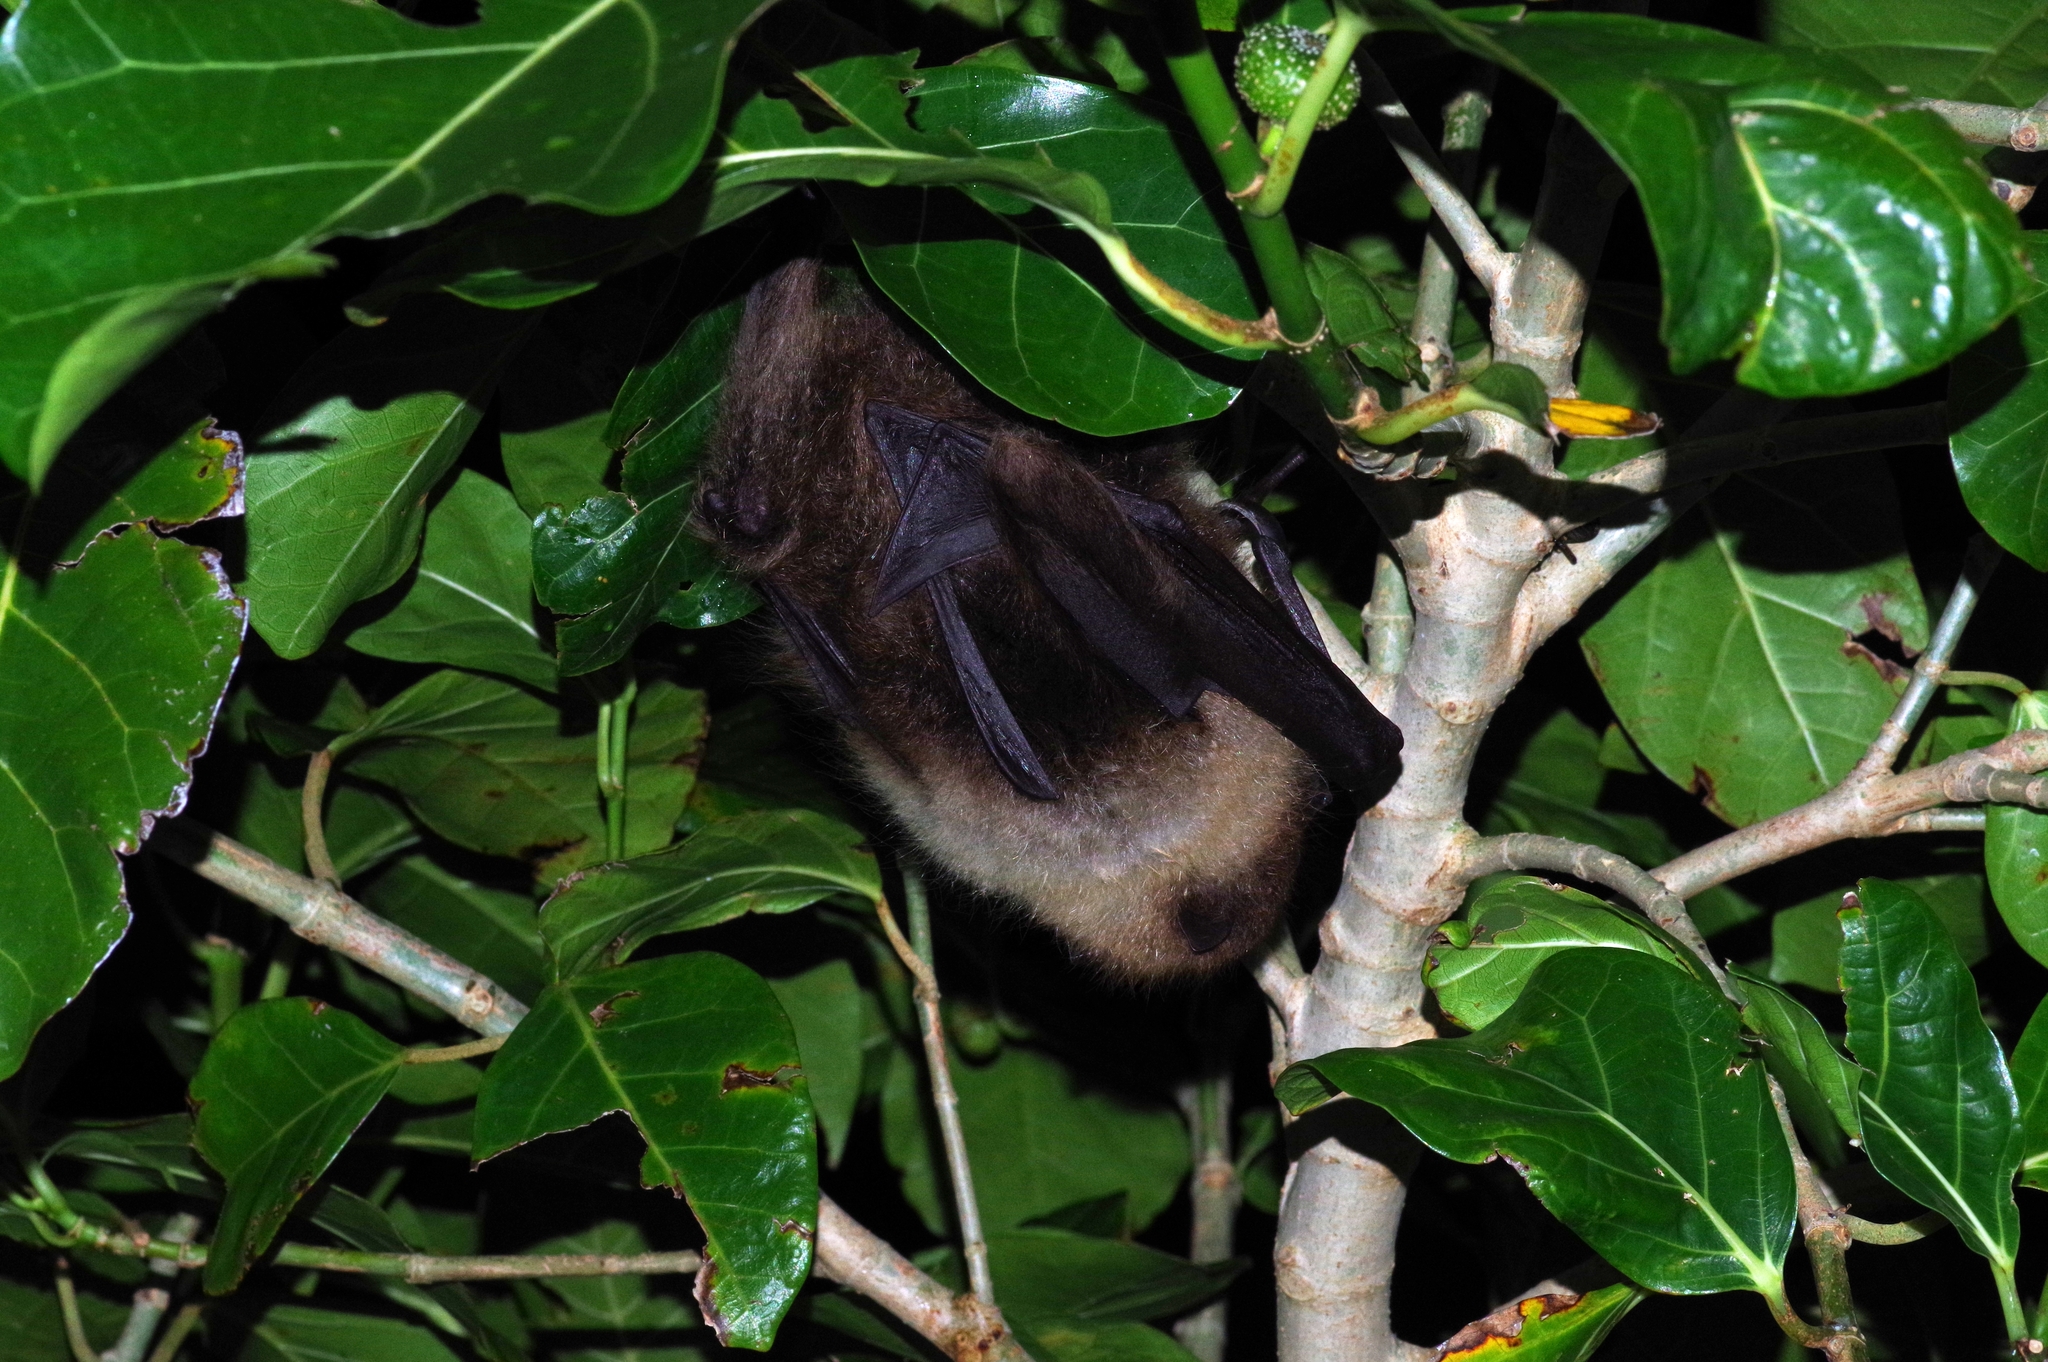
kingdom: Animalia
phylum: Chordata
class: Mammalia
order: Chiroptera
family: Pteropodidae
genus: Pteropus
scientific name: Pteropus dasymallus
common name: Ryukyu flying fox
